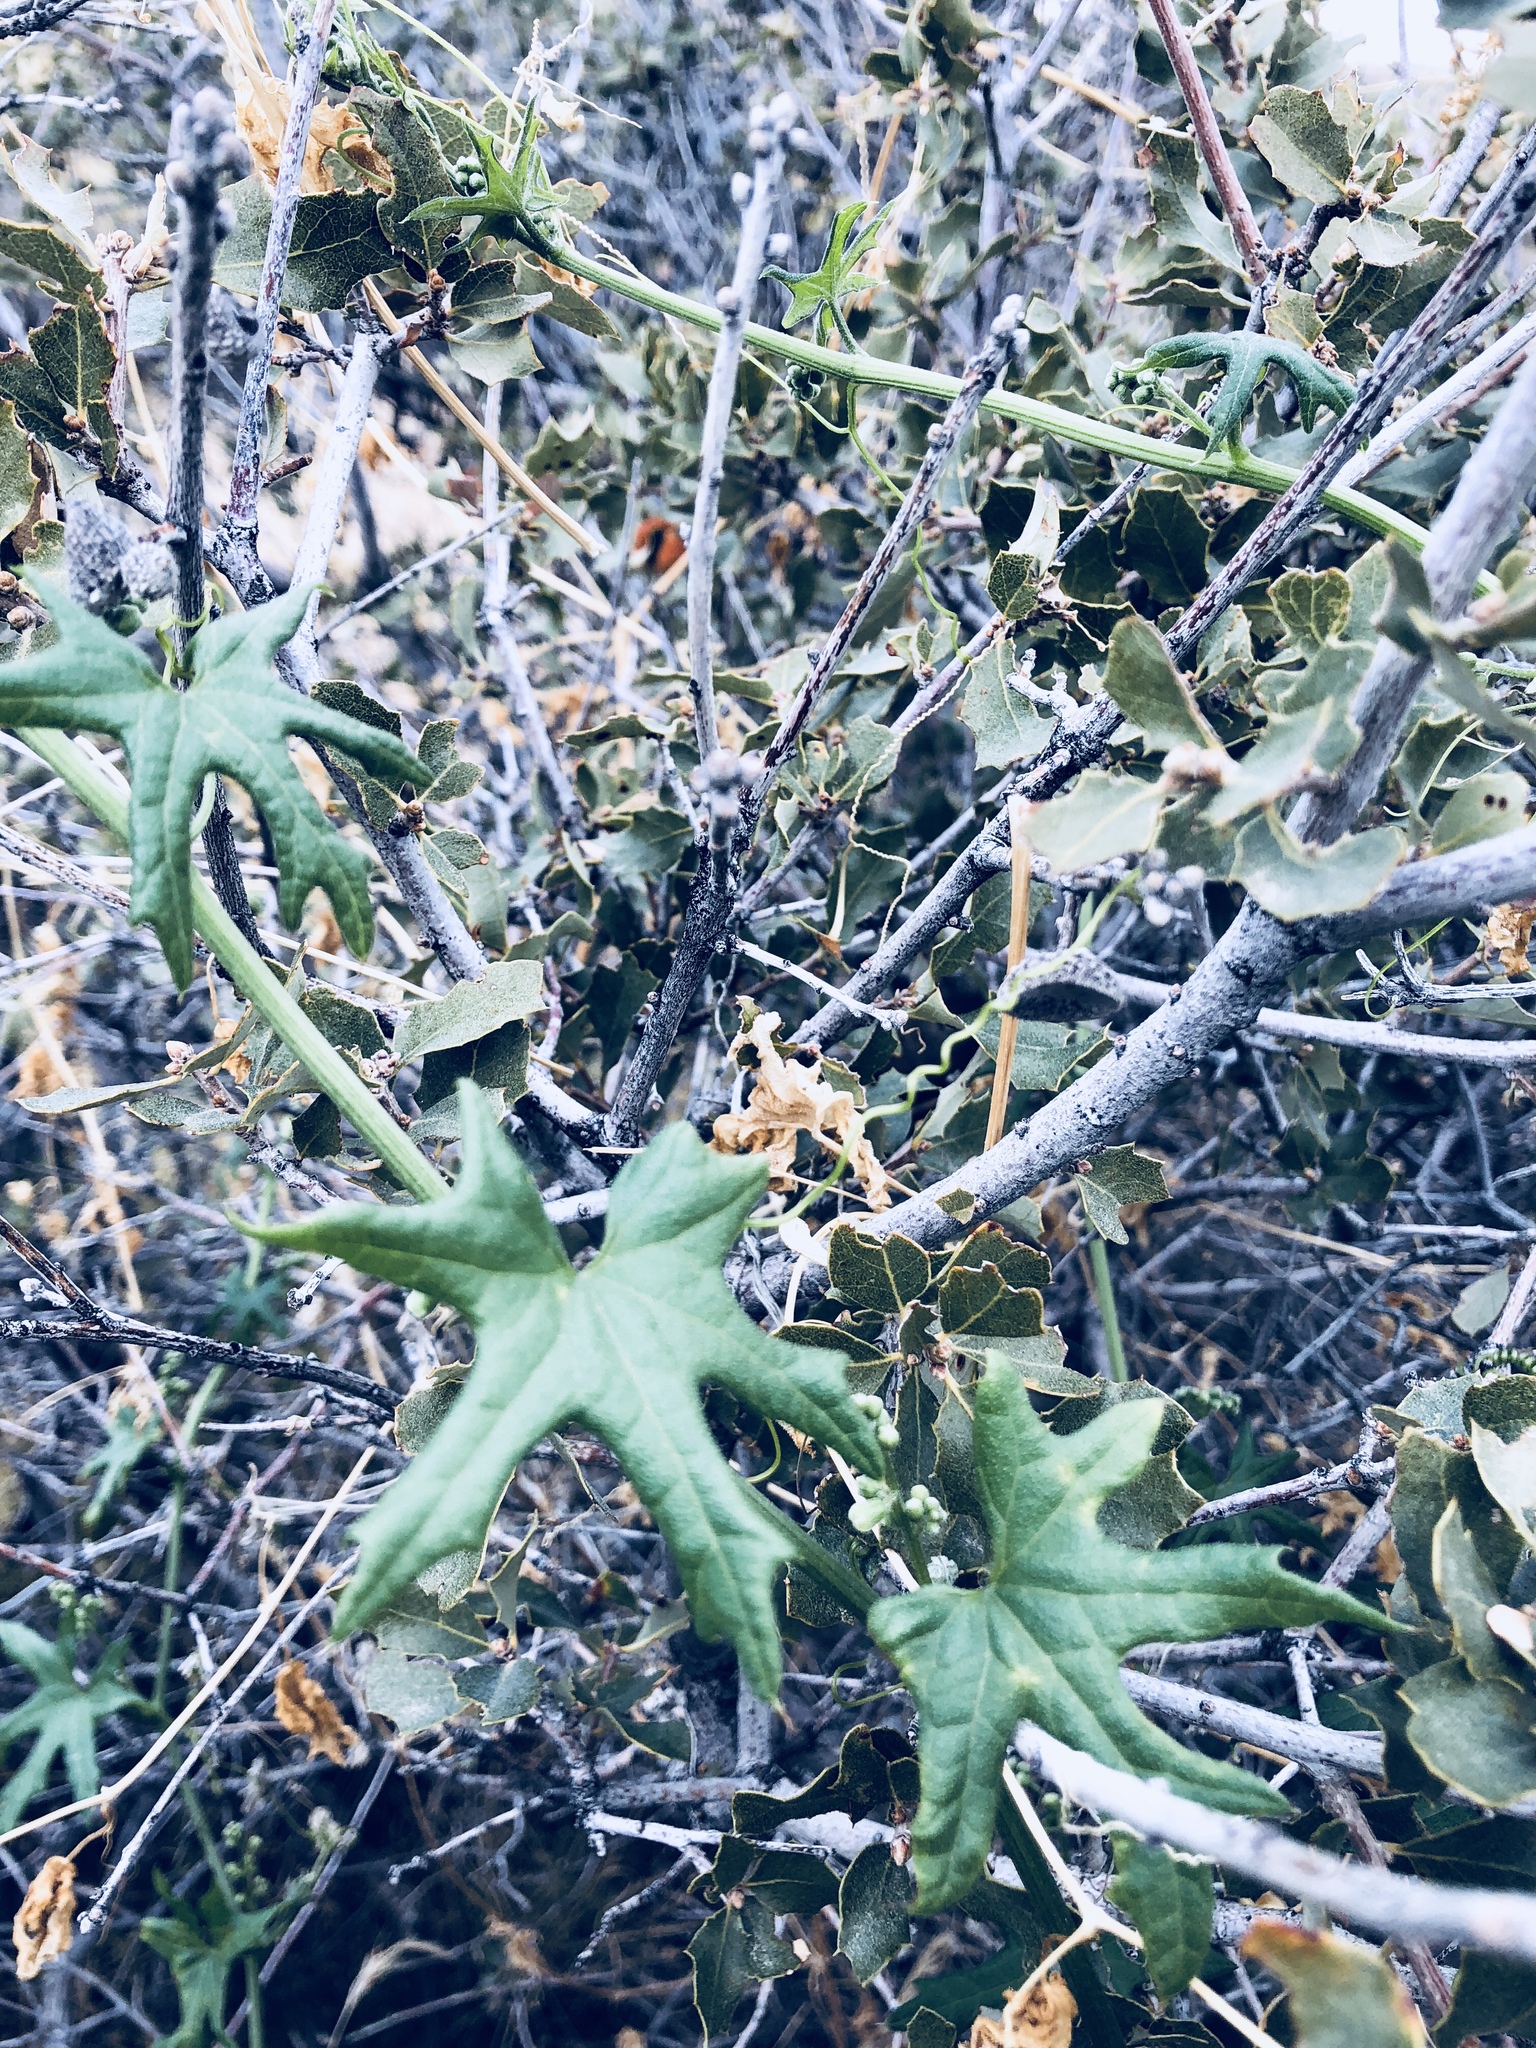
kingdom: Plantae
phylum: Tracheophyta
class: Magnoliopsida
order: Cucurbitales
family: Cucurbitaceae
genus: Marah
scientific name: Marah macrocarpa
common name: Cucamonga manroot
